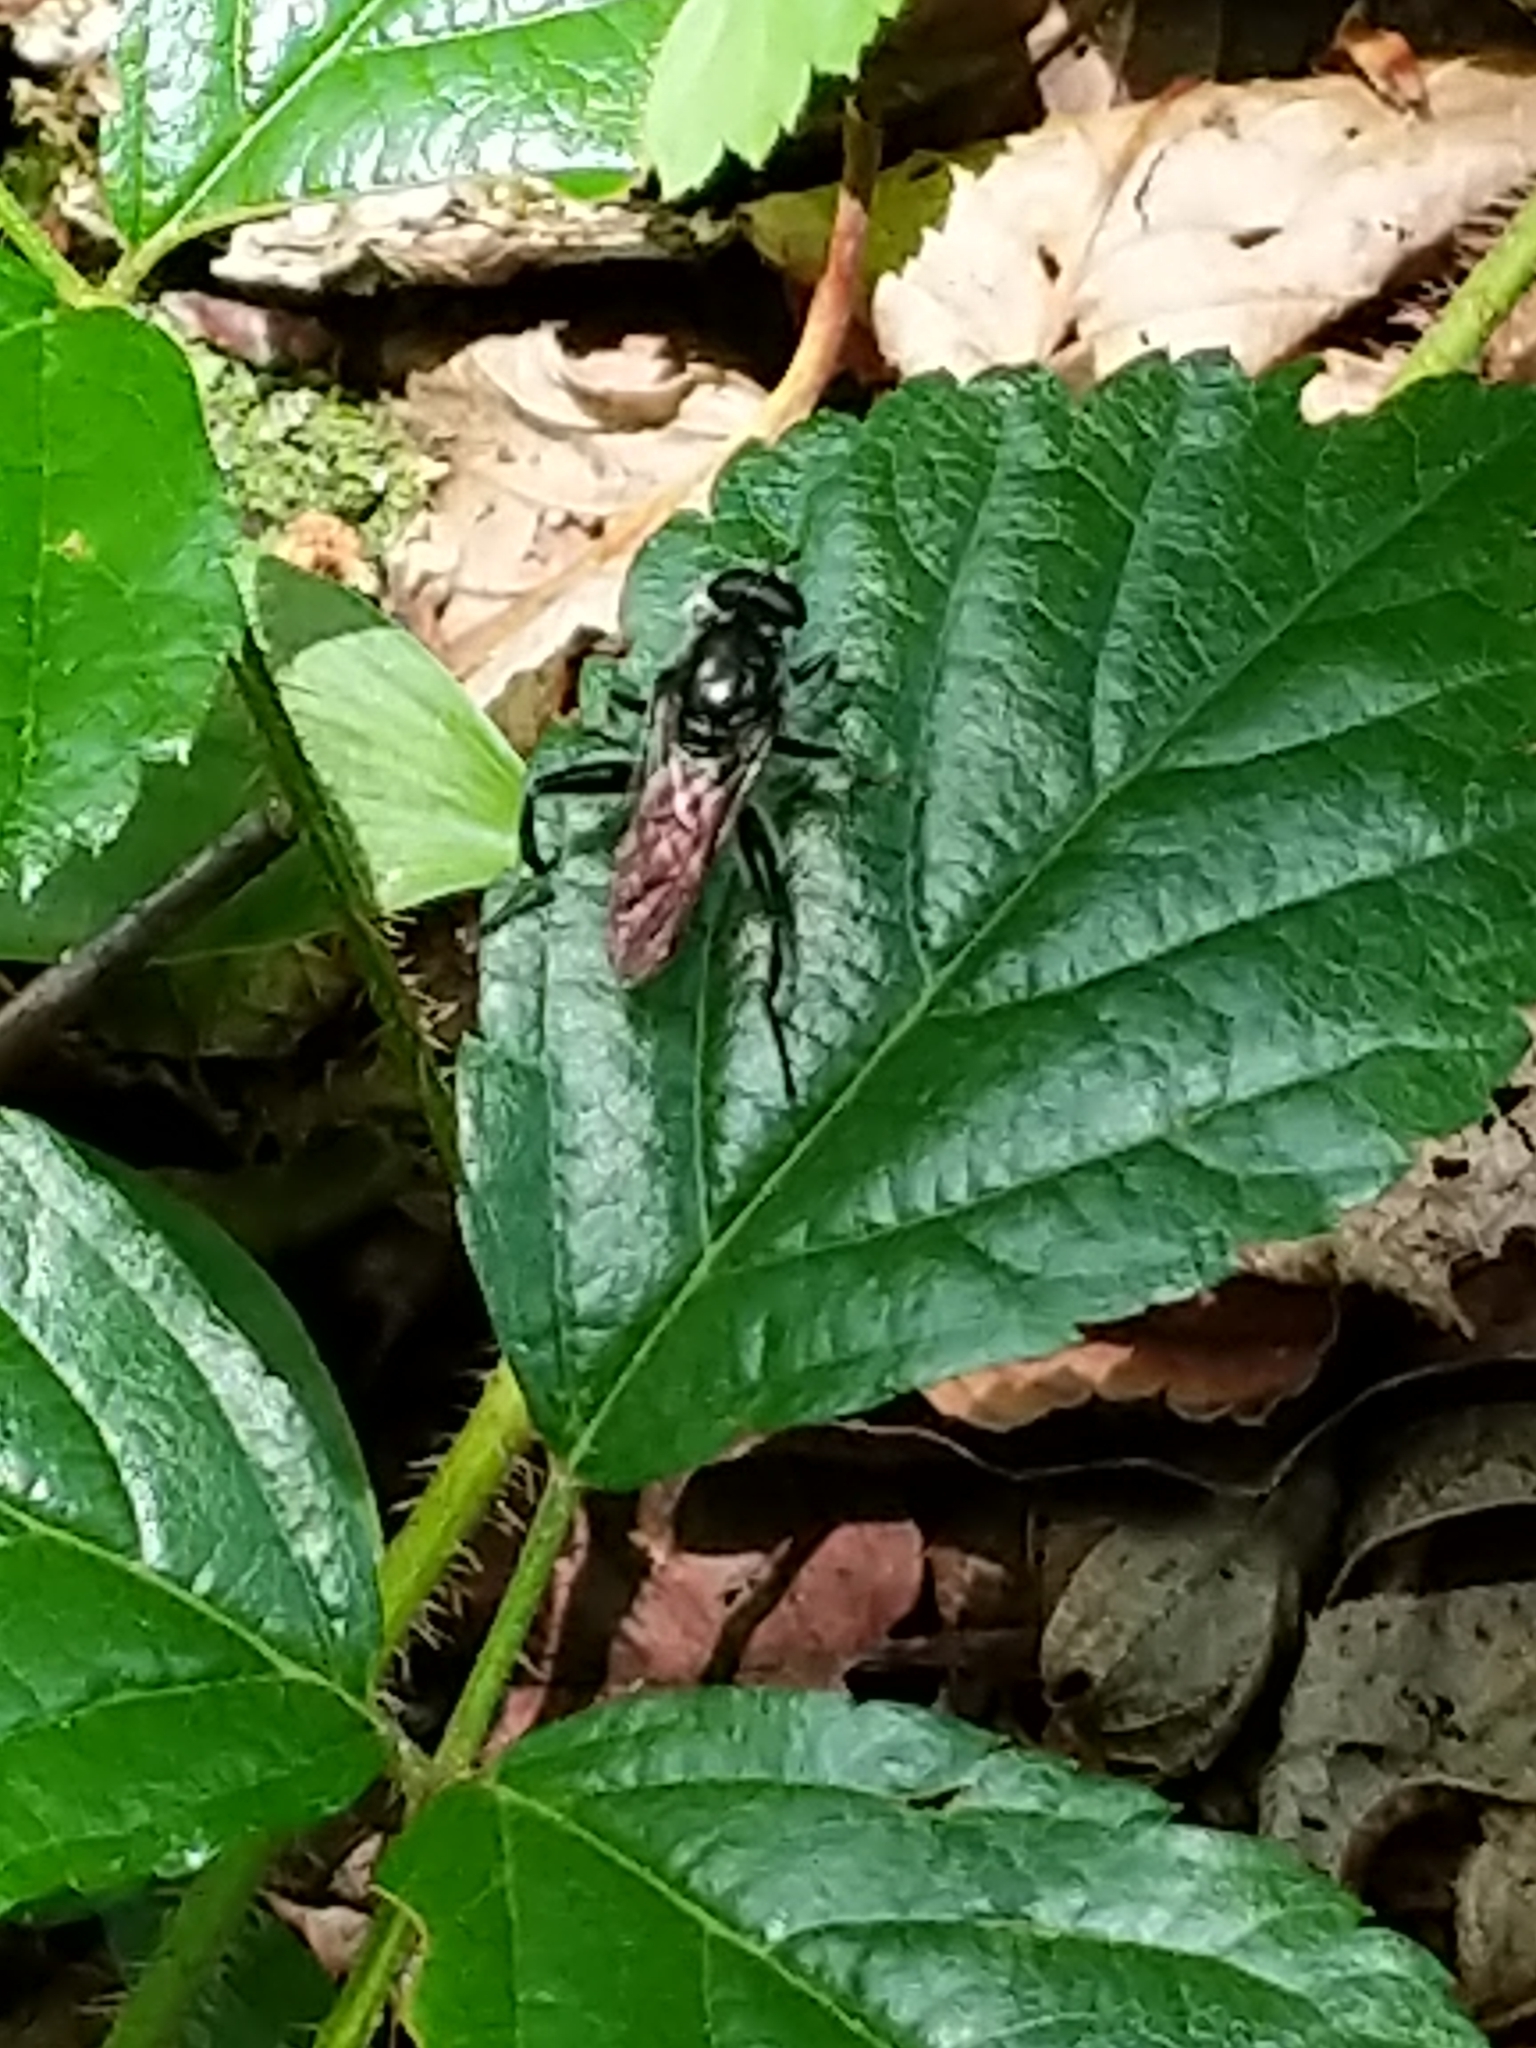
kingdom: Animalia
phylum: Arthropoda
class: Insecta
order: Diptera
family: Syrphidae
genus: Brachypalpoides
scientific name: Brachypalpoides bicolor
